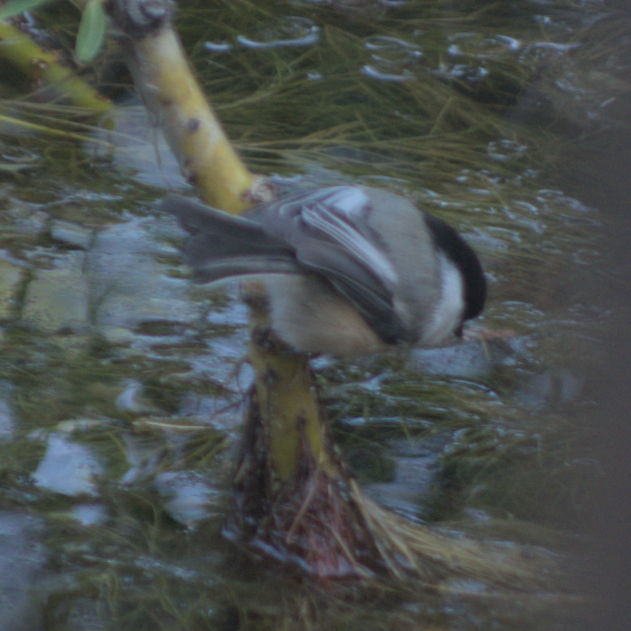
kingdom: Animalia
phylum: Chordata
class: Aves
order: Passeriformes
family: Paridae
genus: Poecile
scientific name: Poecile atricapillus
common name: Black-capped chickadee
